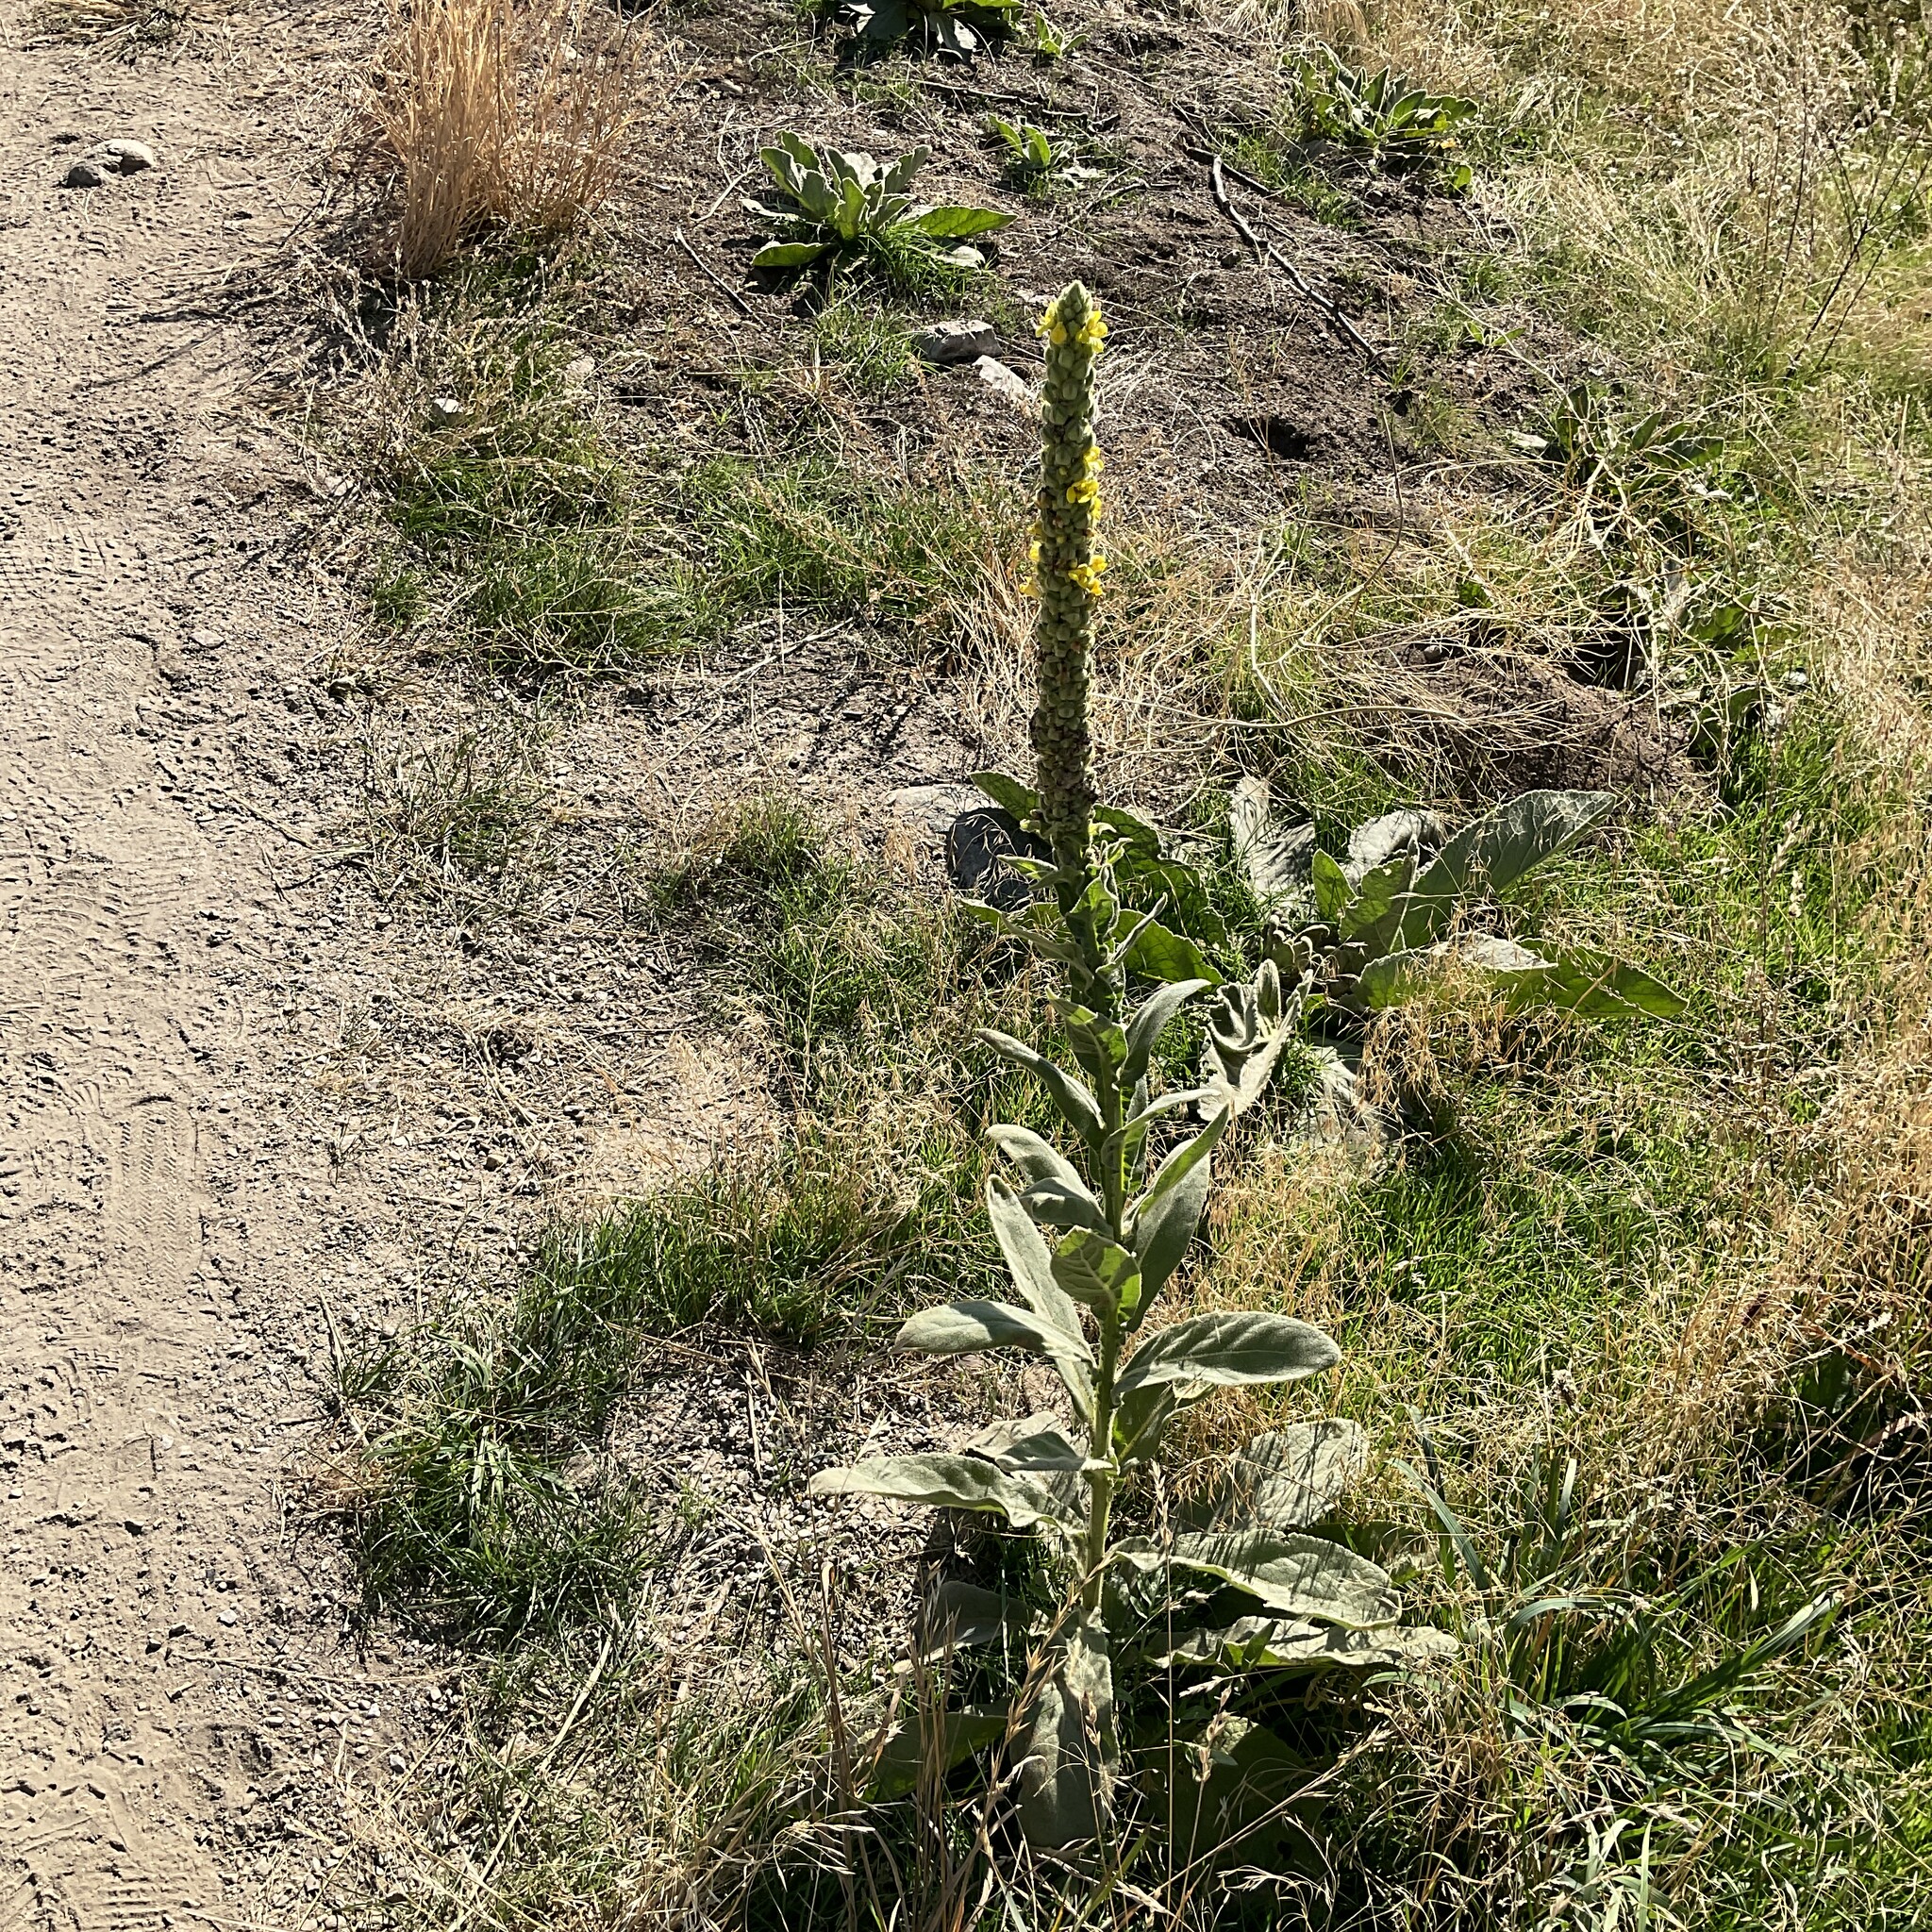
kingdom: Plantae
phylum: Tracheophyta
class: Magnoliopsida
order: Lamiales
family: Scrophulariaceae
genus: Verbascum
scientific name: Verbascum thapsus
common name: Common mullein
